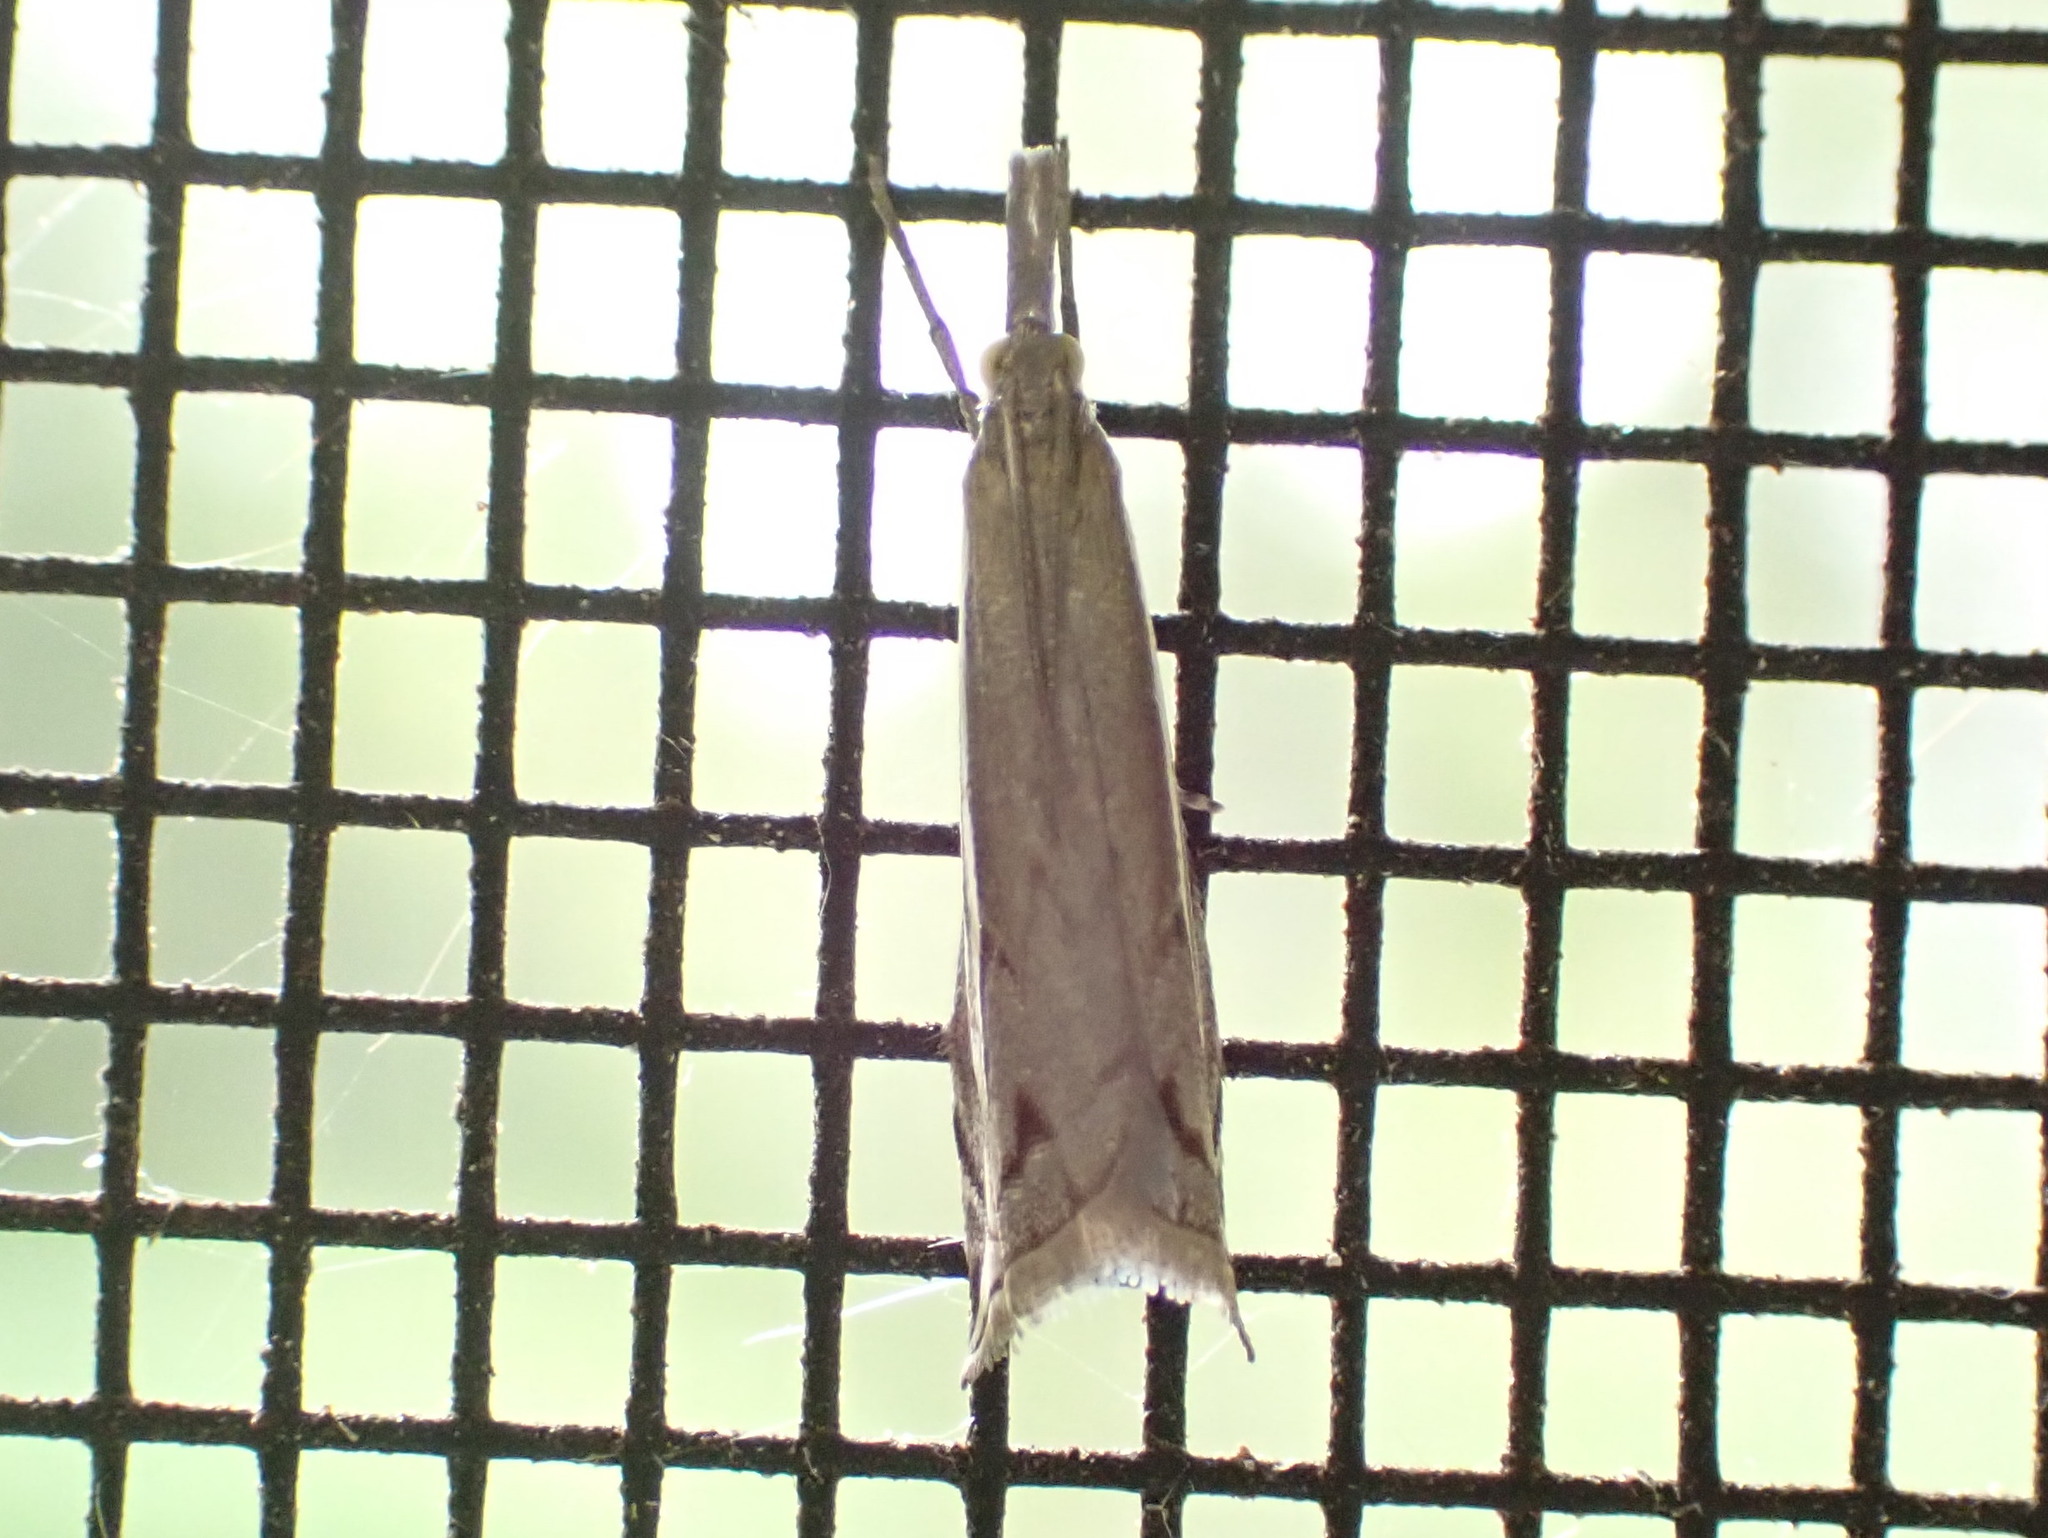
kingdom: Animalia
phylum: Arthropoda
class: Insecta
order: Lepidoptera
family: Crambidae
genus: Raphiptera
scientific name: Raphiptera argillaceellus
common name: Diminutive grass-veneer
